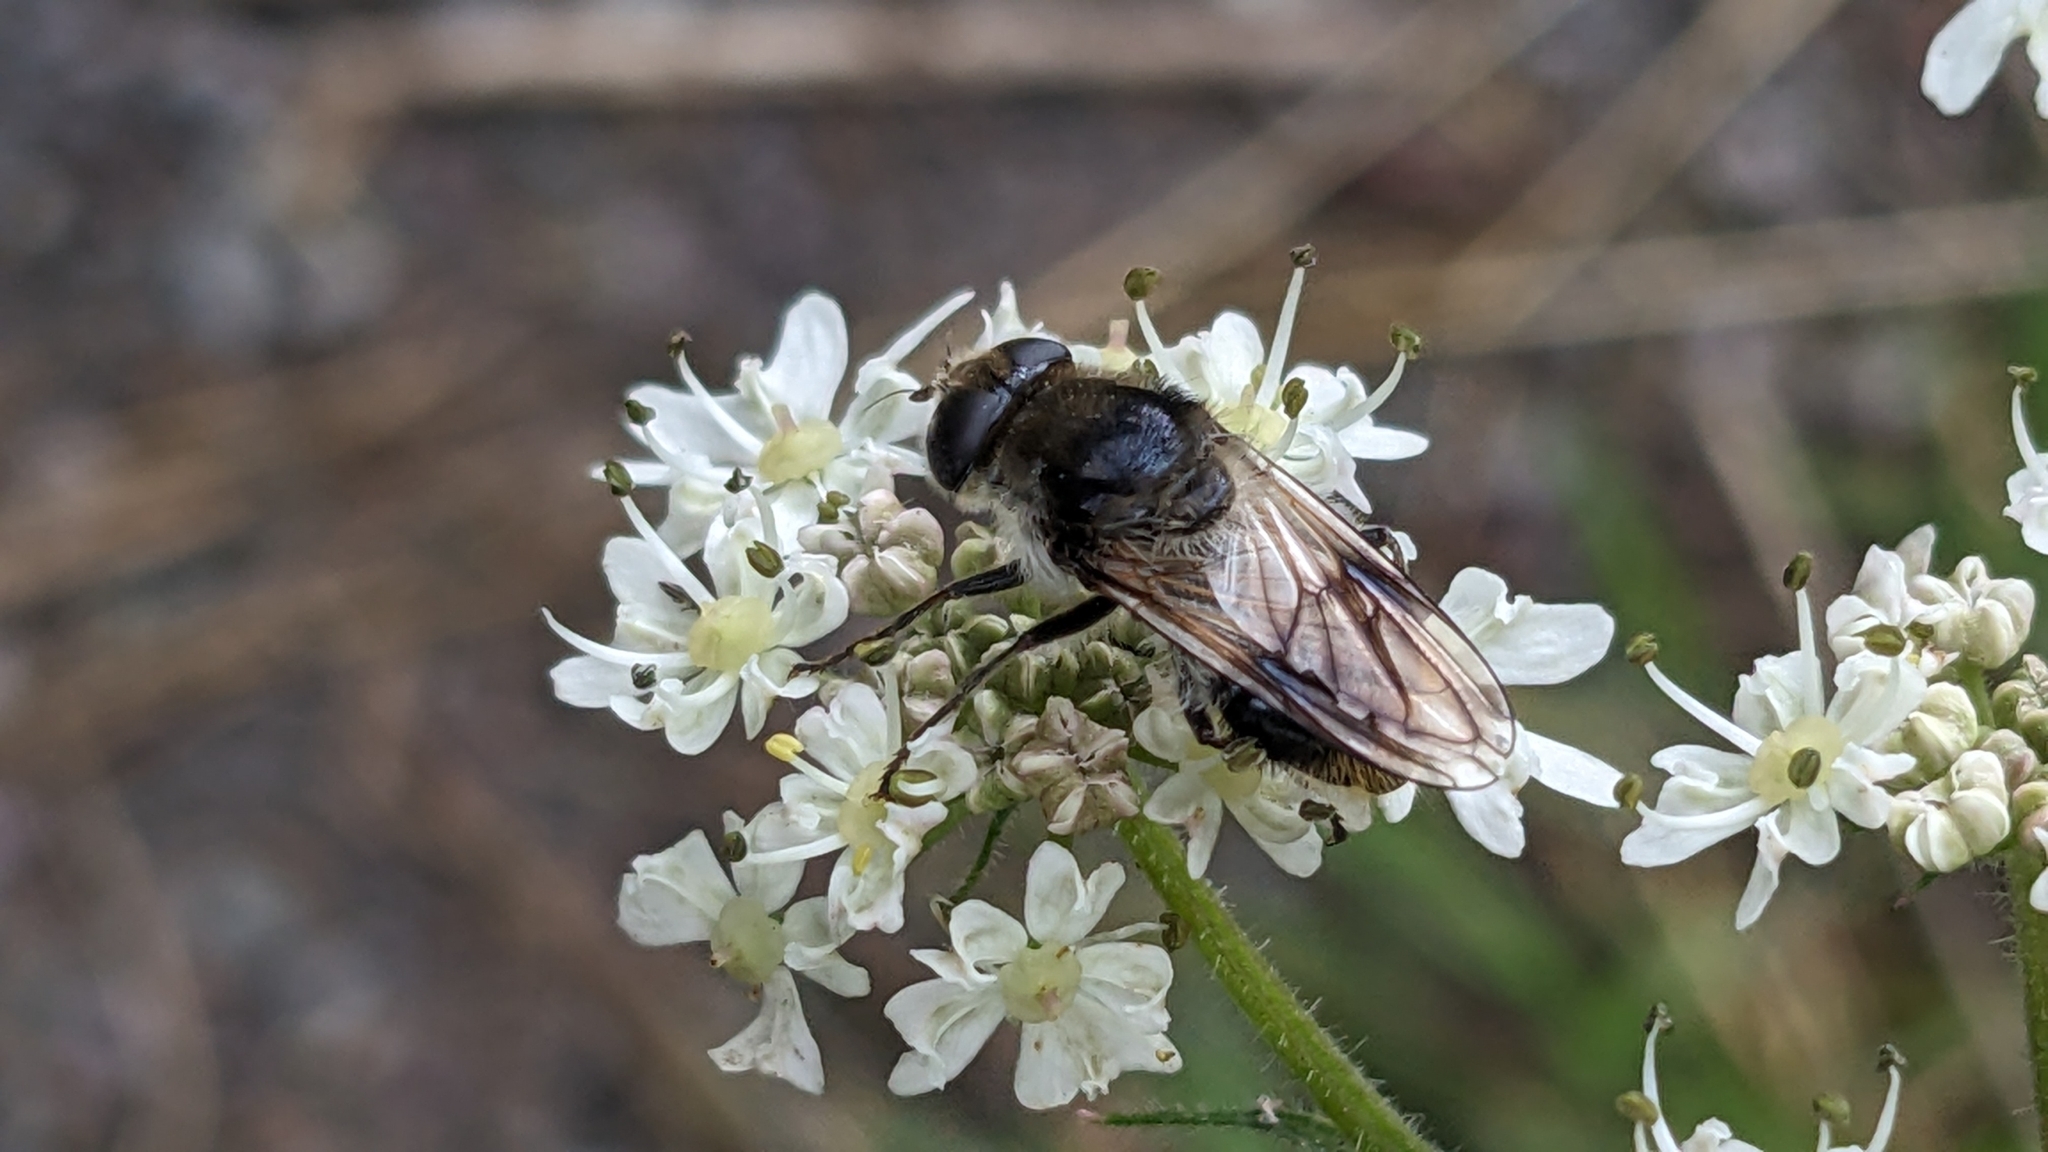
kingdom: Animalia
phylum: Arthropoda
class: Insecta
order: Diptera
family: Syrphidae
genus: Cheilosia
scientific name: Cheilosia illustrata
